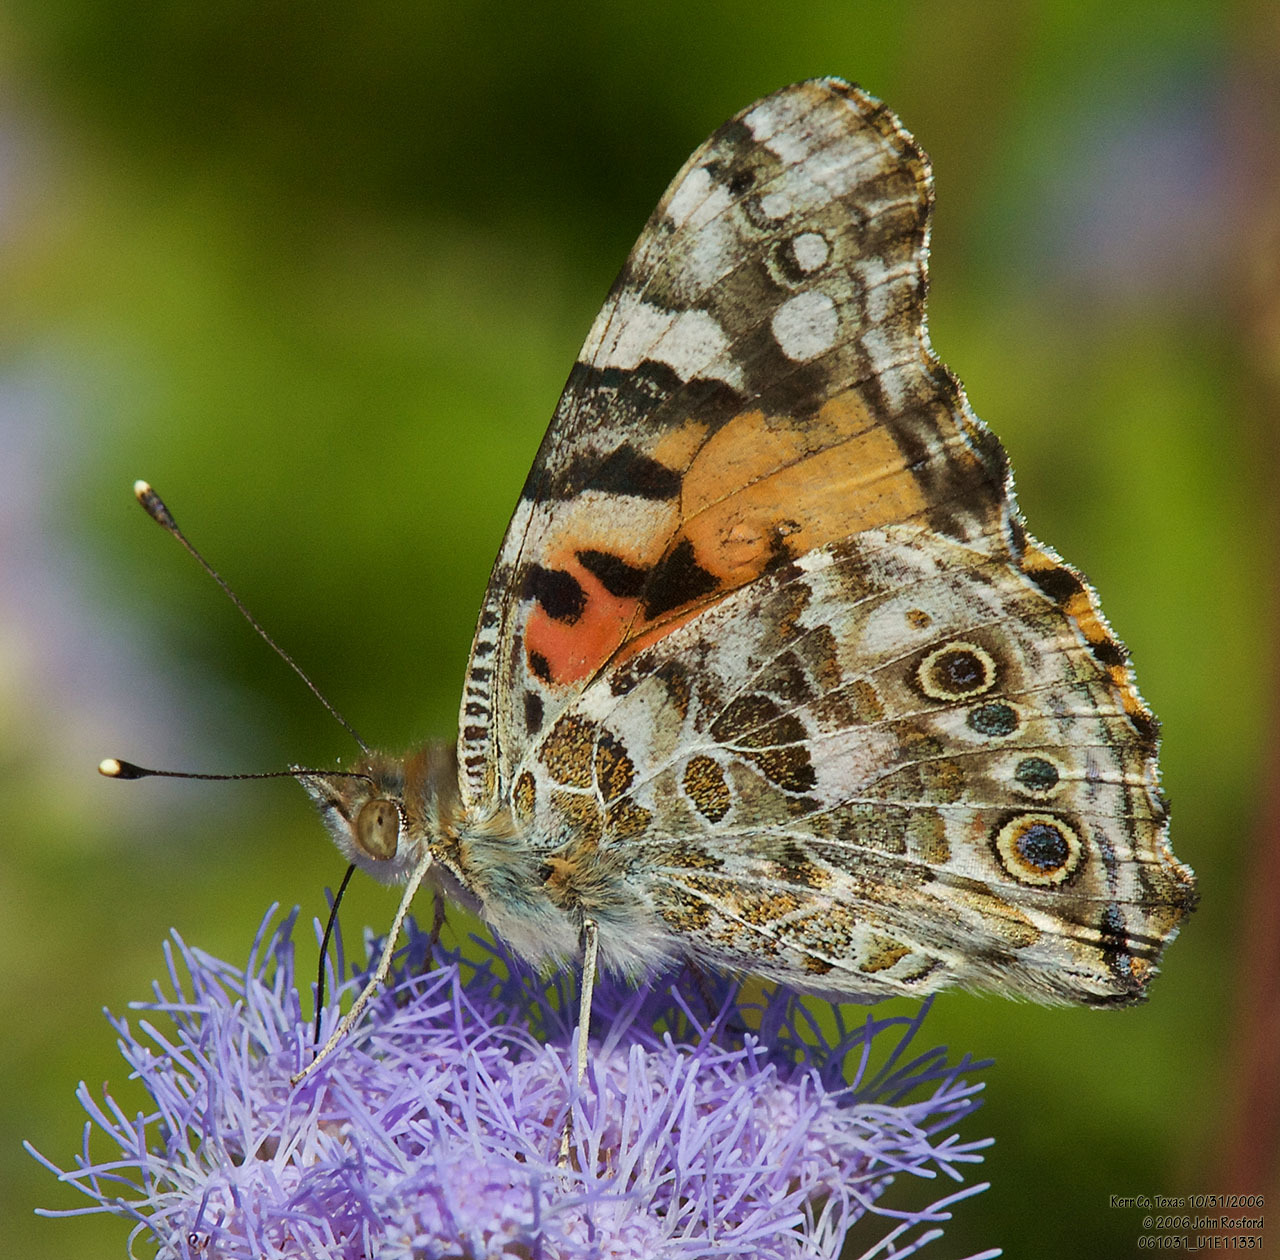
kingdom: Animalia
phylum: Arthropoda
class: Insecta
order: Lepidoptera
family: Nymphalidae
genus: Vanessa
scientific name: Vanessa cardui
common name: Painted lady
